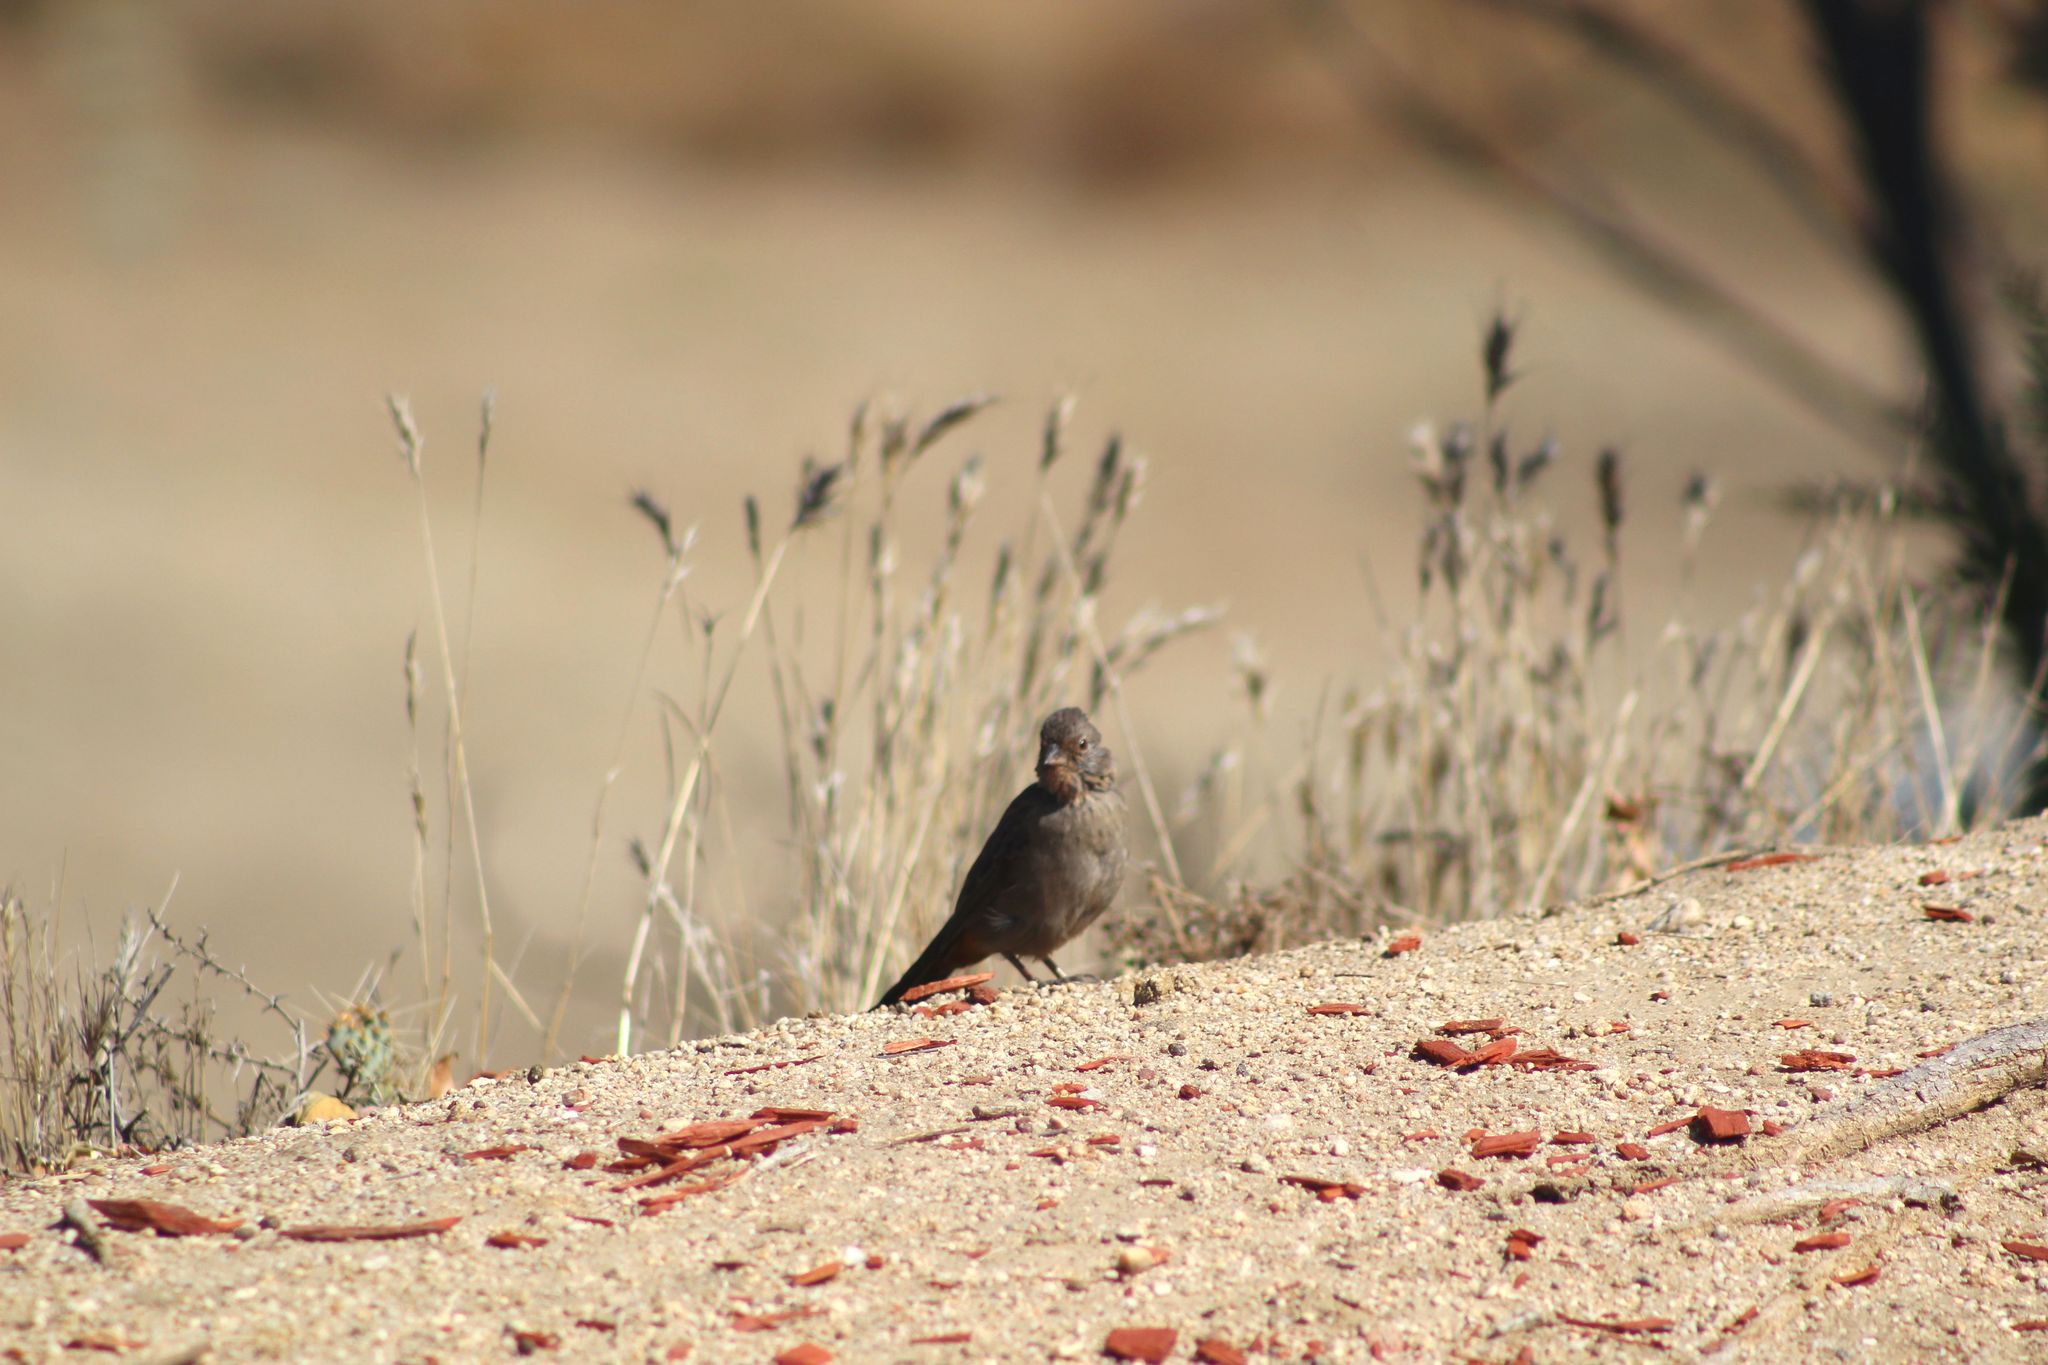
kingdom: Animalia
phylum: Chordata
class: Aves
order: Passeriformes
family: Passerellidae
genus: Melozone
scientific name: Melozone crissalis
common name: California towhee
